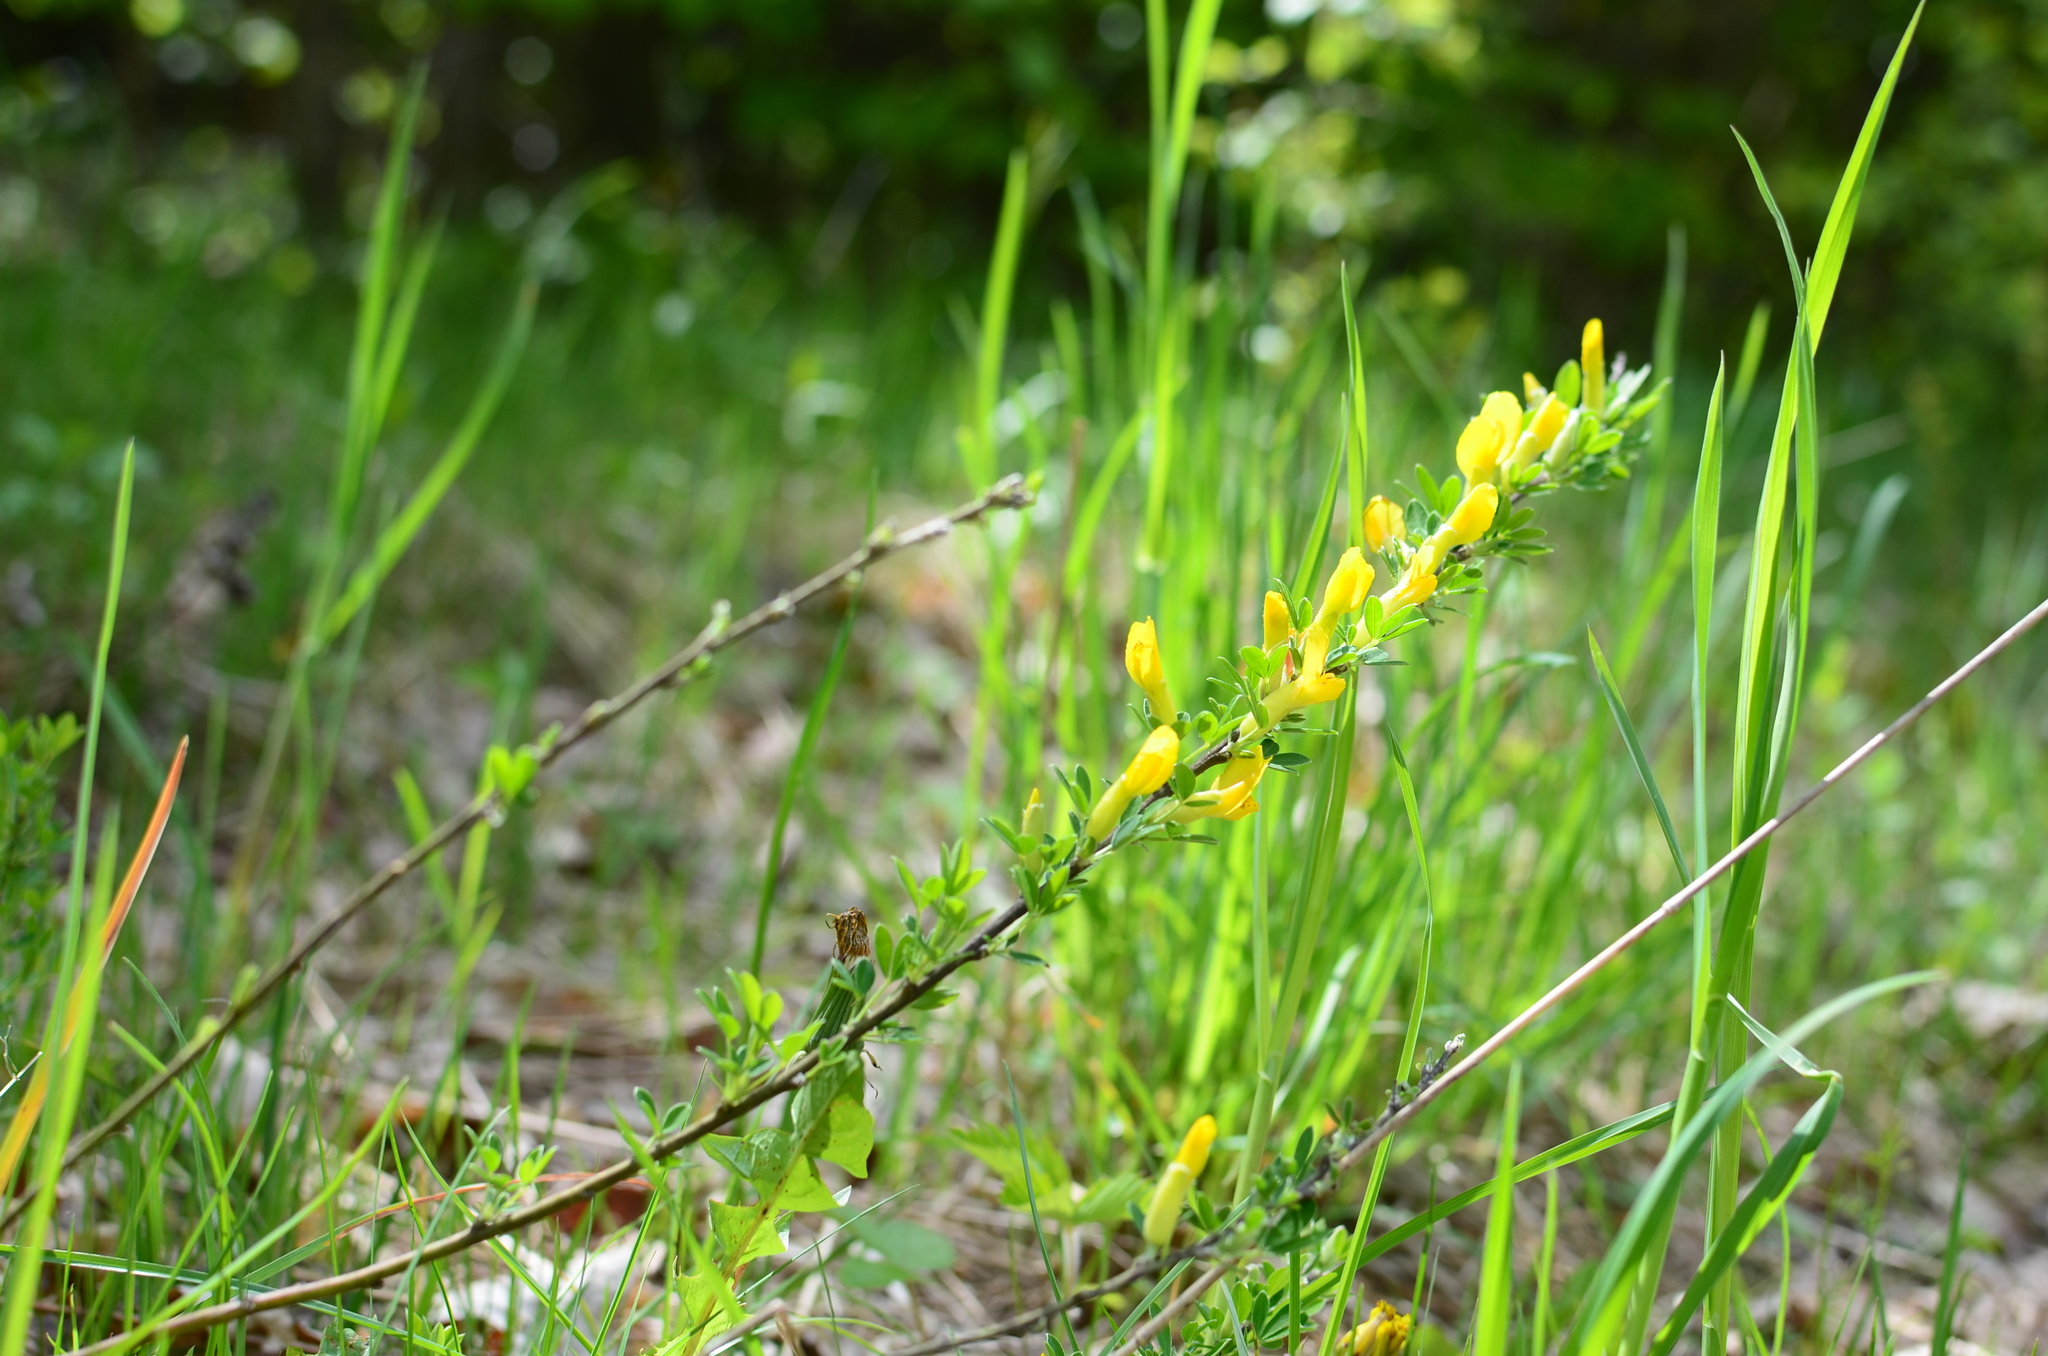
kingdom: Plantae
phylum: Tracheophyta
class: Magnoliopsida
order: Fabales
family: Fabaceae
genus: Chamaecytisus
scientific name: Chamaecytisus ruthenicus
